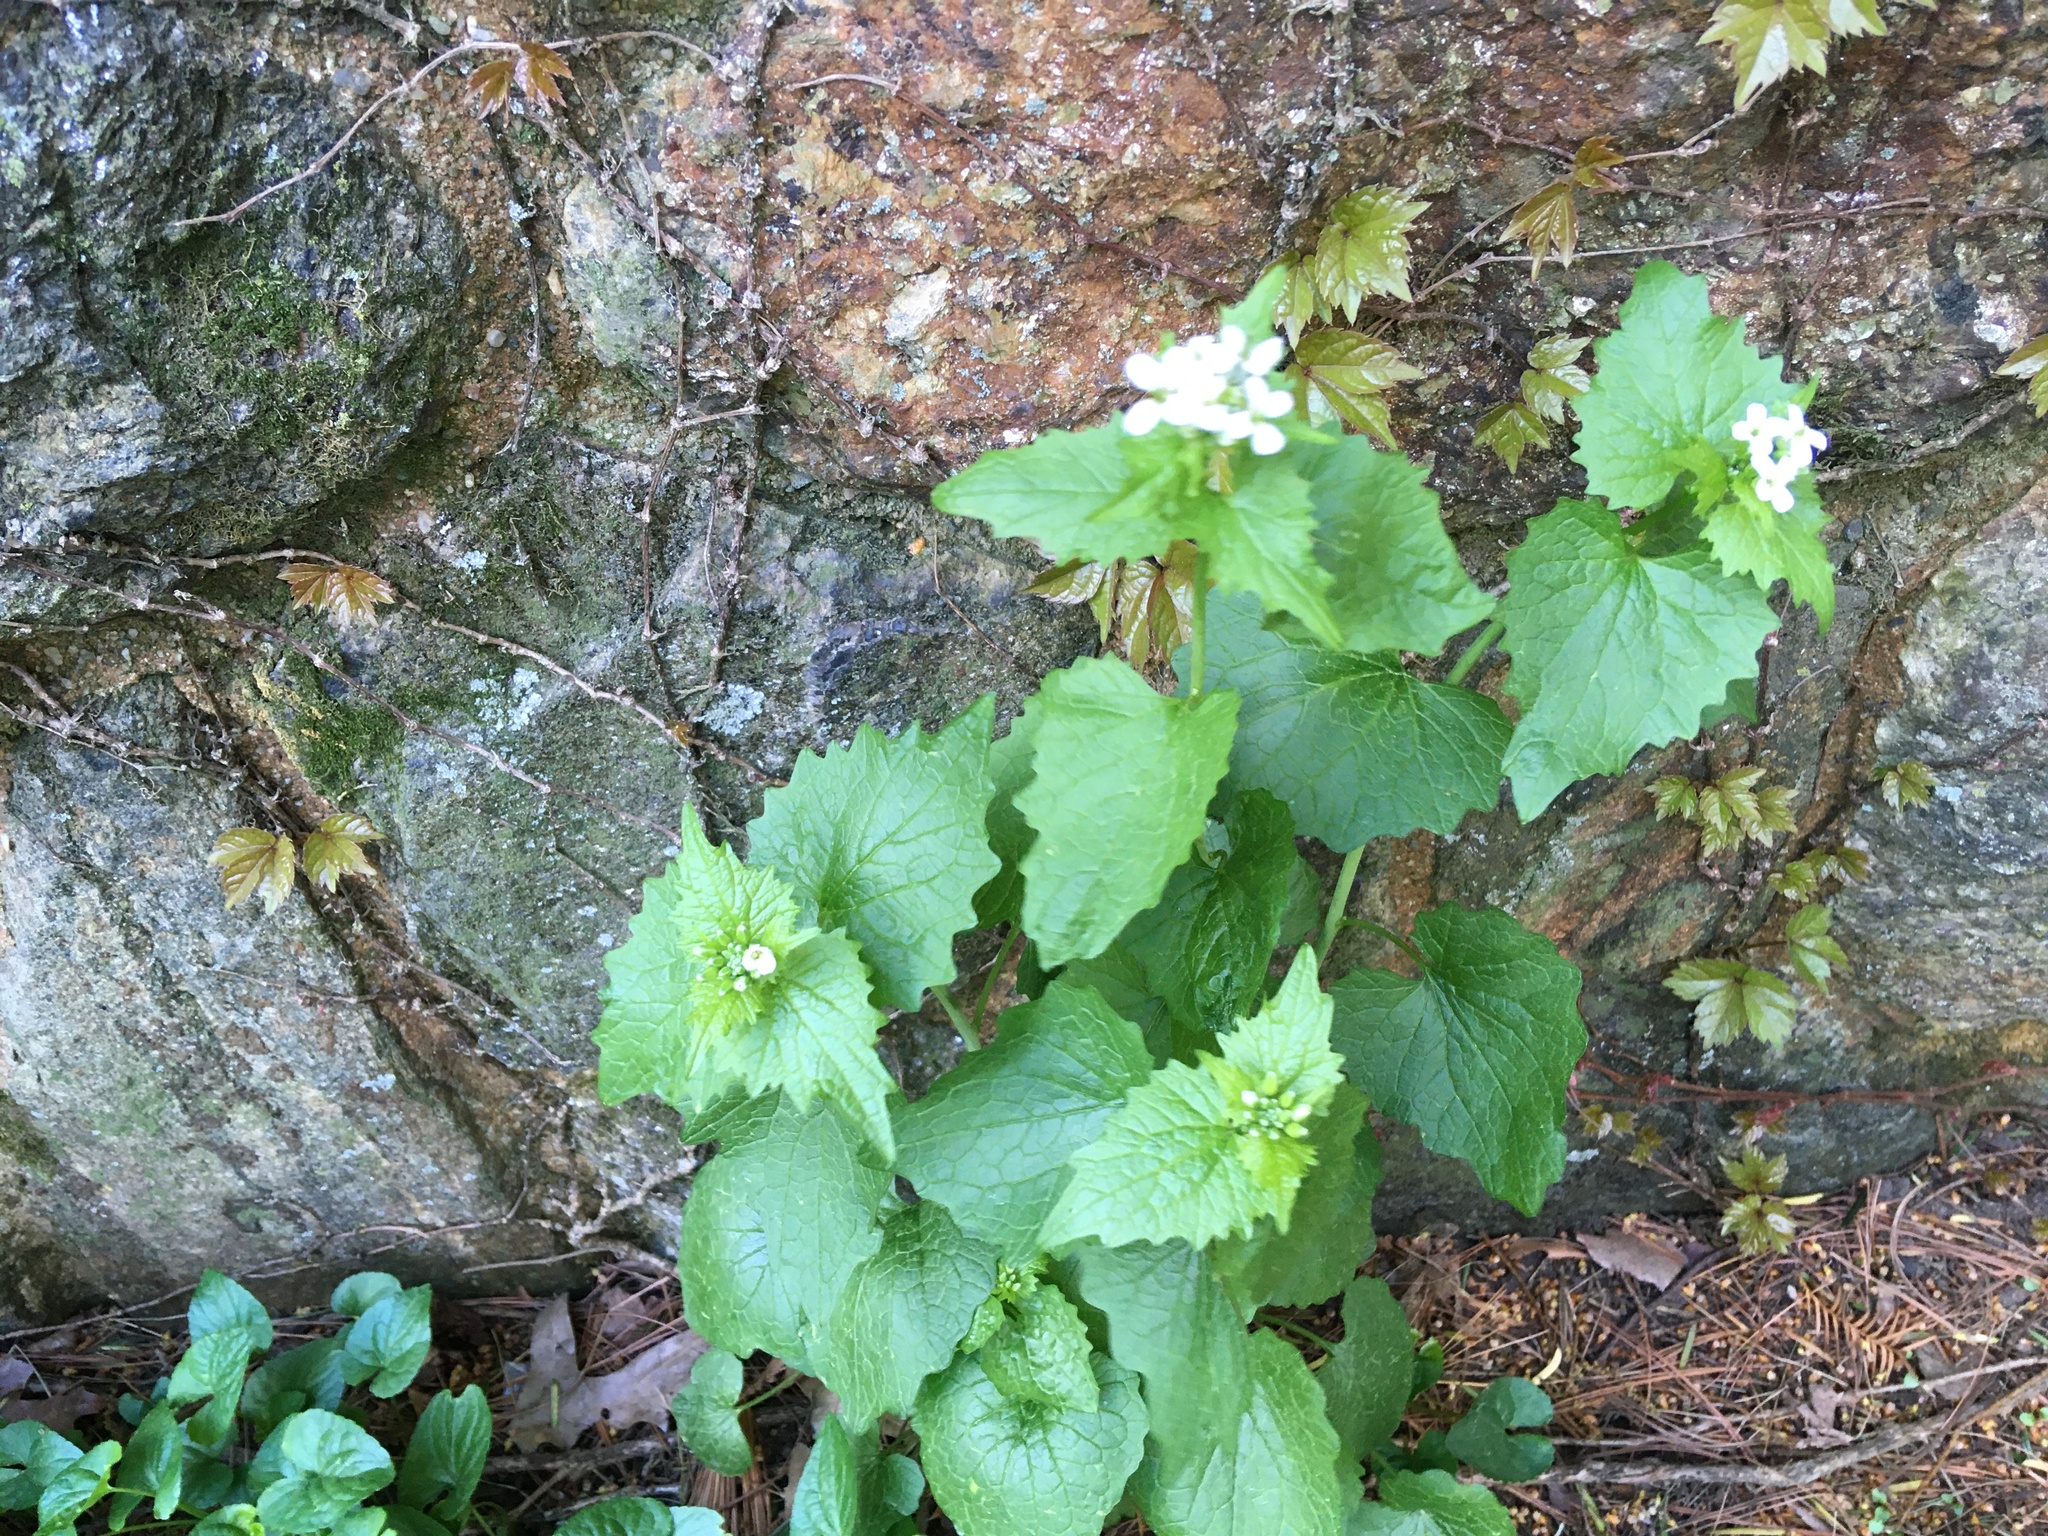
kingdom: Plantae
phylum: Tracheophyta
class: Magnoliopsida
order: Brassicales
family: Brassicaceae
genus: Alliaria
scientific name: Alliaria petiolata
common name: Garlic mustard
